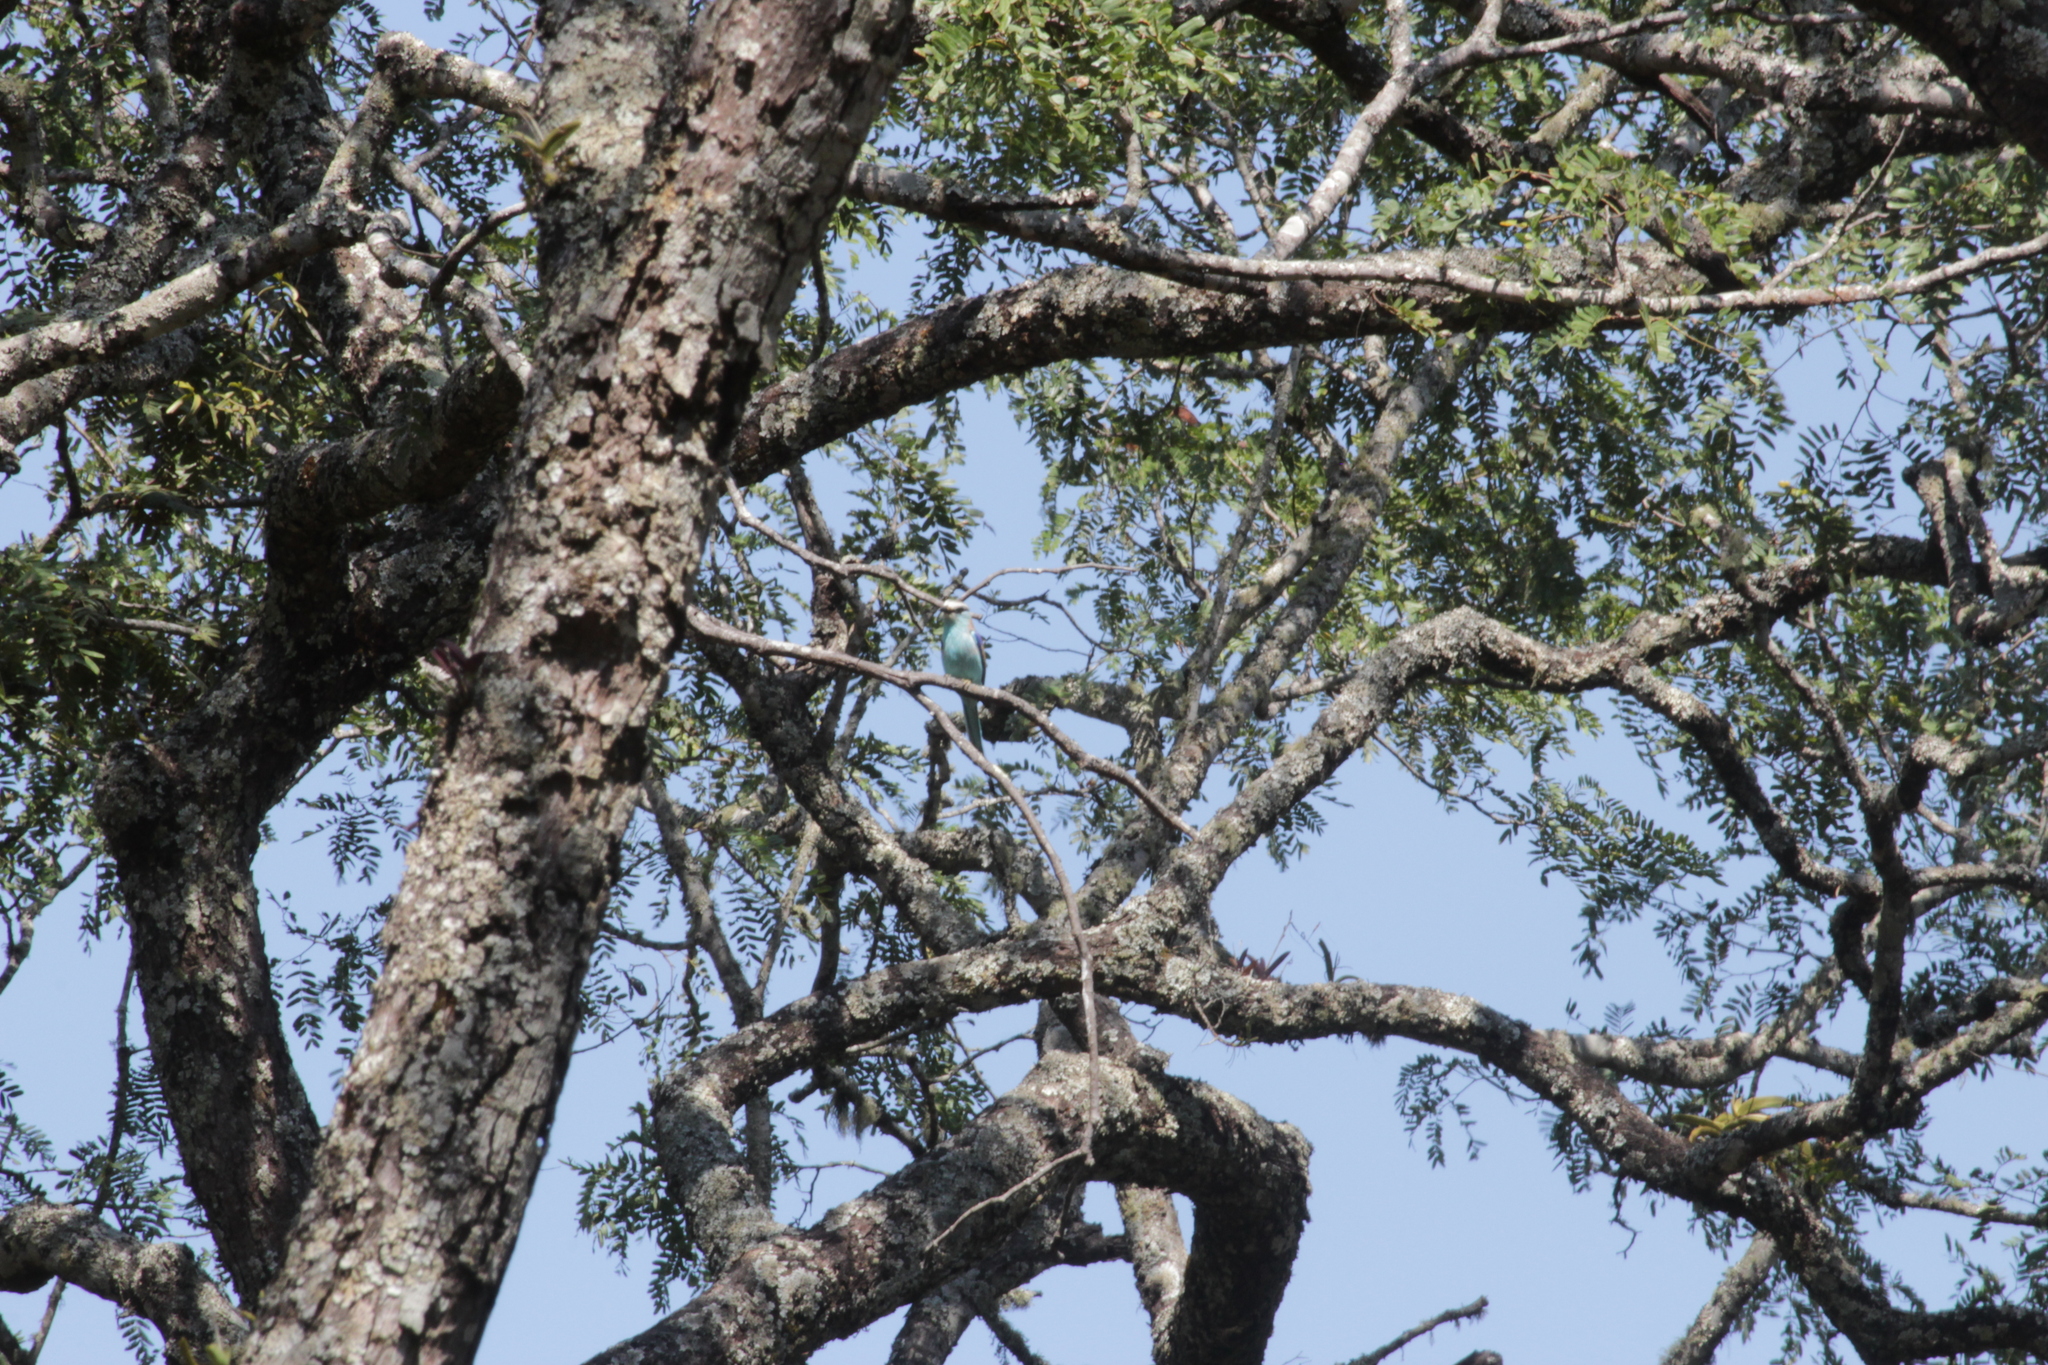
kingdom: Animalia
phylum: Chordata
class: Aves
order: Coraciiformes
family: Coraciidae
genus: Coracias
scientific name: Coracias spatulatus
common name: Racket-tailed roller
